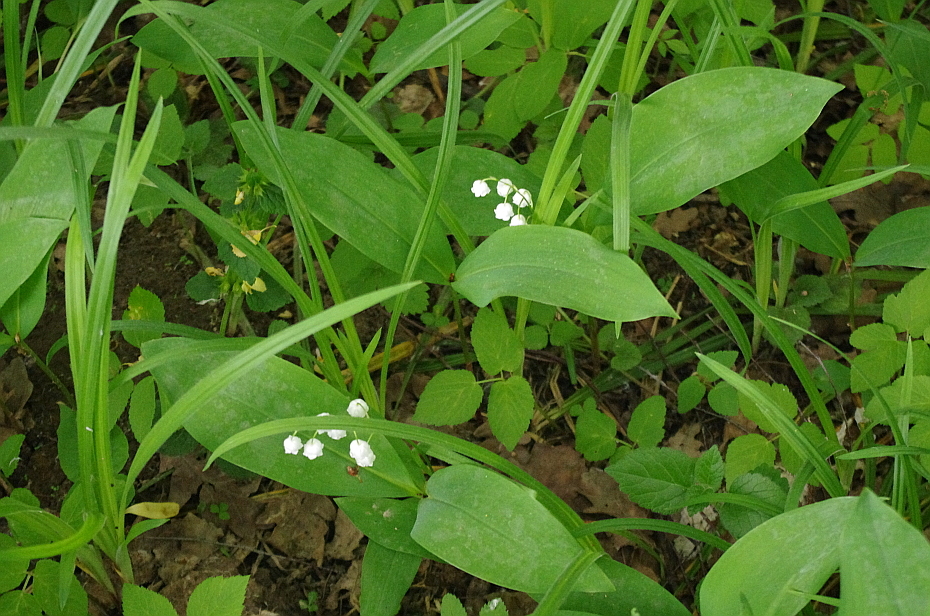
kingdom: Plantae
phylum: Tracheophyta
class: Liliopsida
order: Asparagales
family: Asparagaceae
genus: Convallaria
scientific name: Convallaria majalis
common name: Lily-of-the-valley
